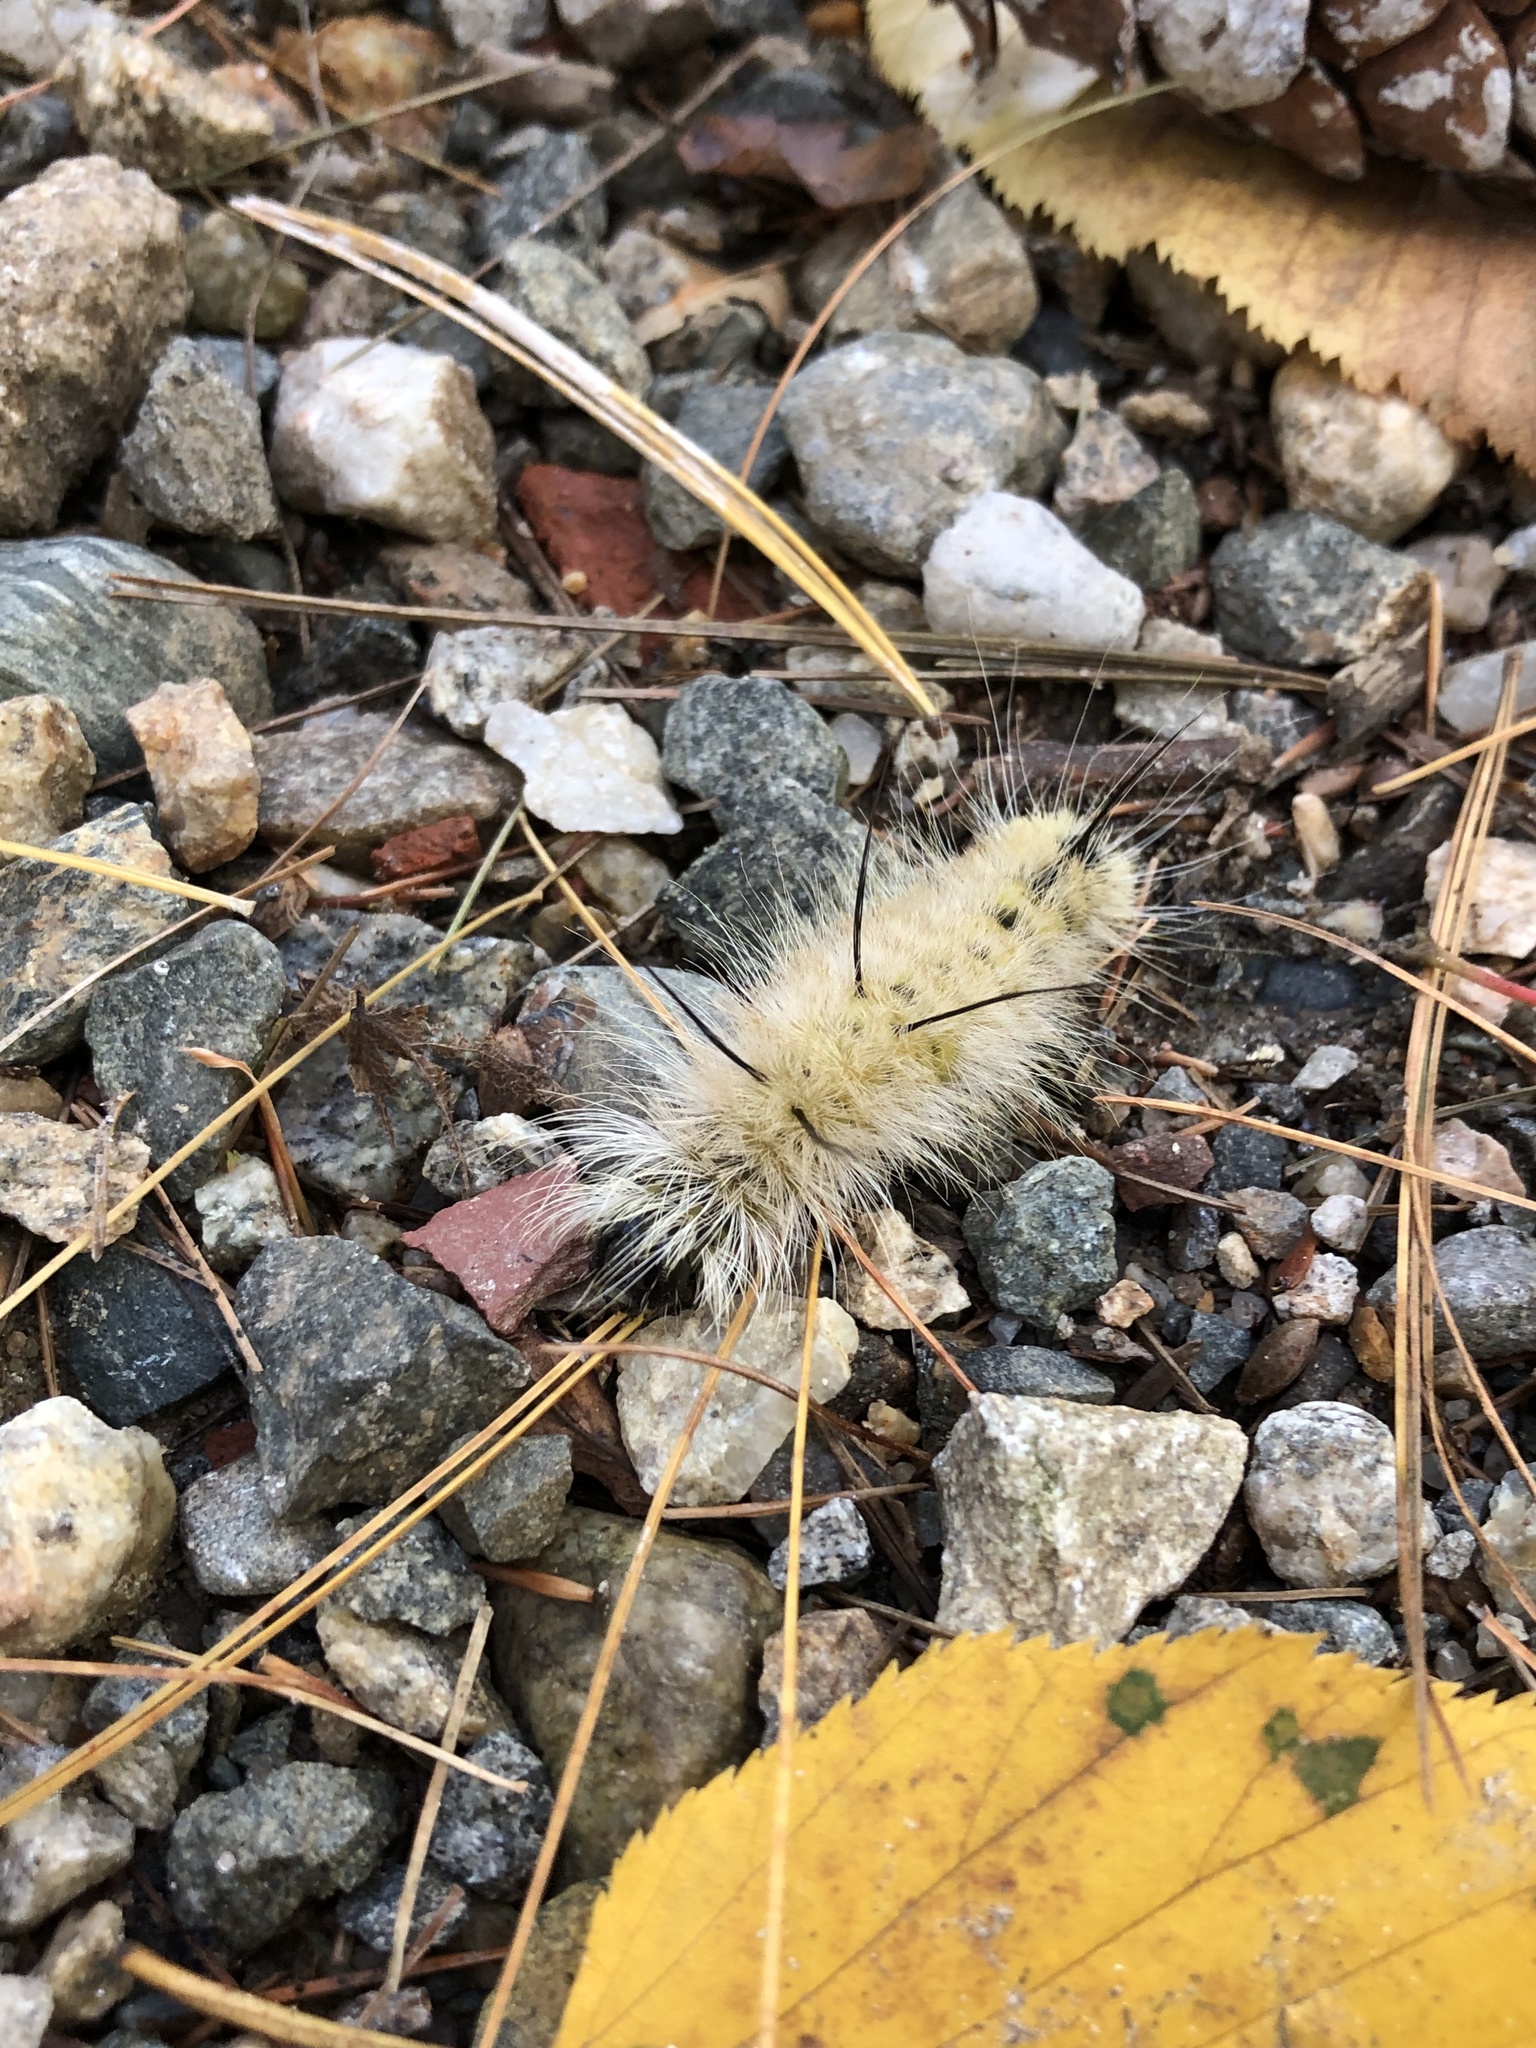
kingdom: Animalia
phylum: Arthropoda
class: Insecta
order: Lepidoptera
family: Noctuidae
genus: Acronicta
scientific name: Acronicta americana
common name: American dagger
